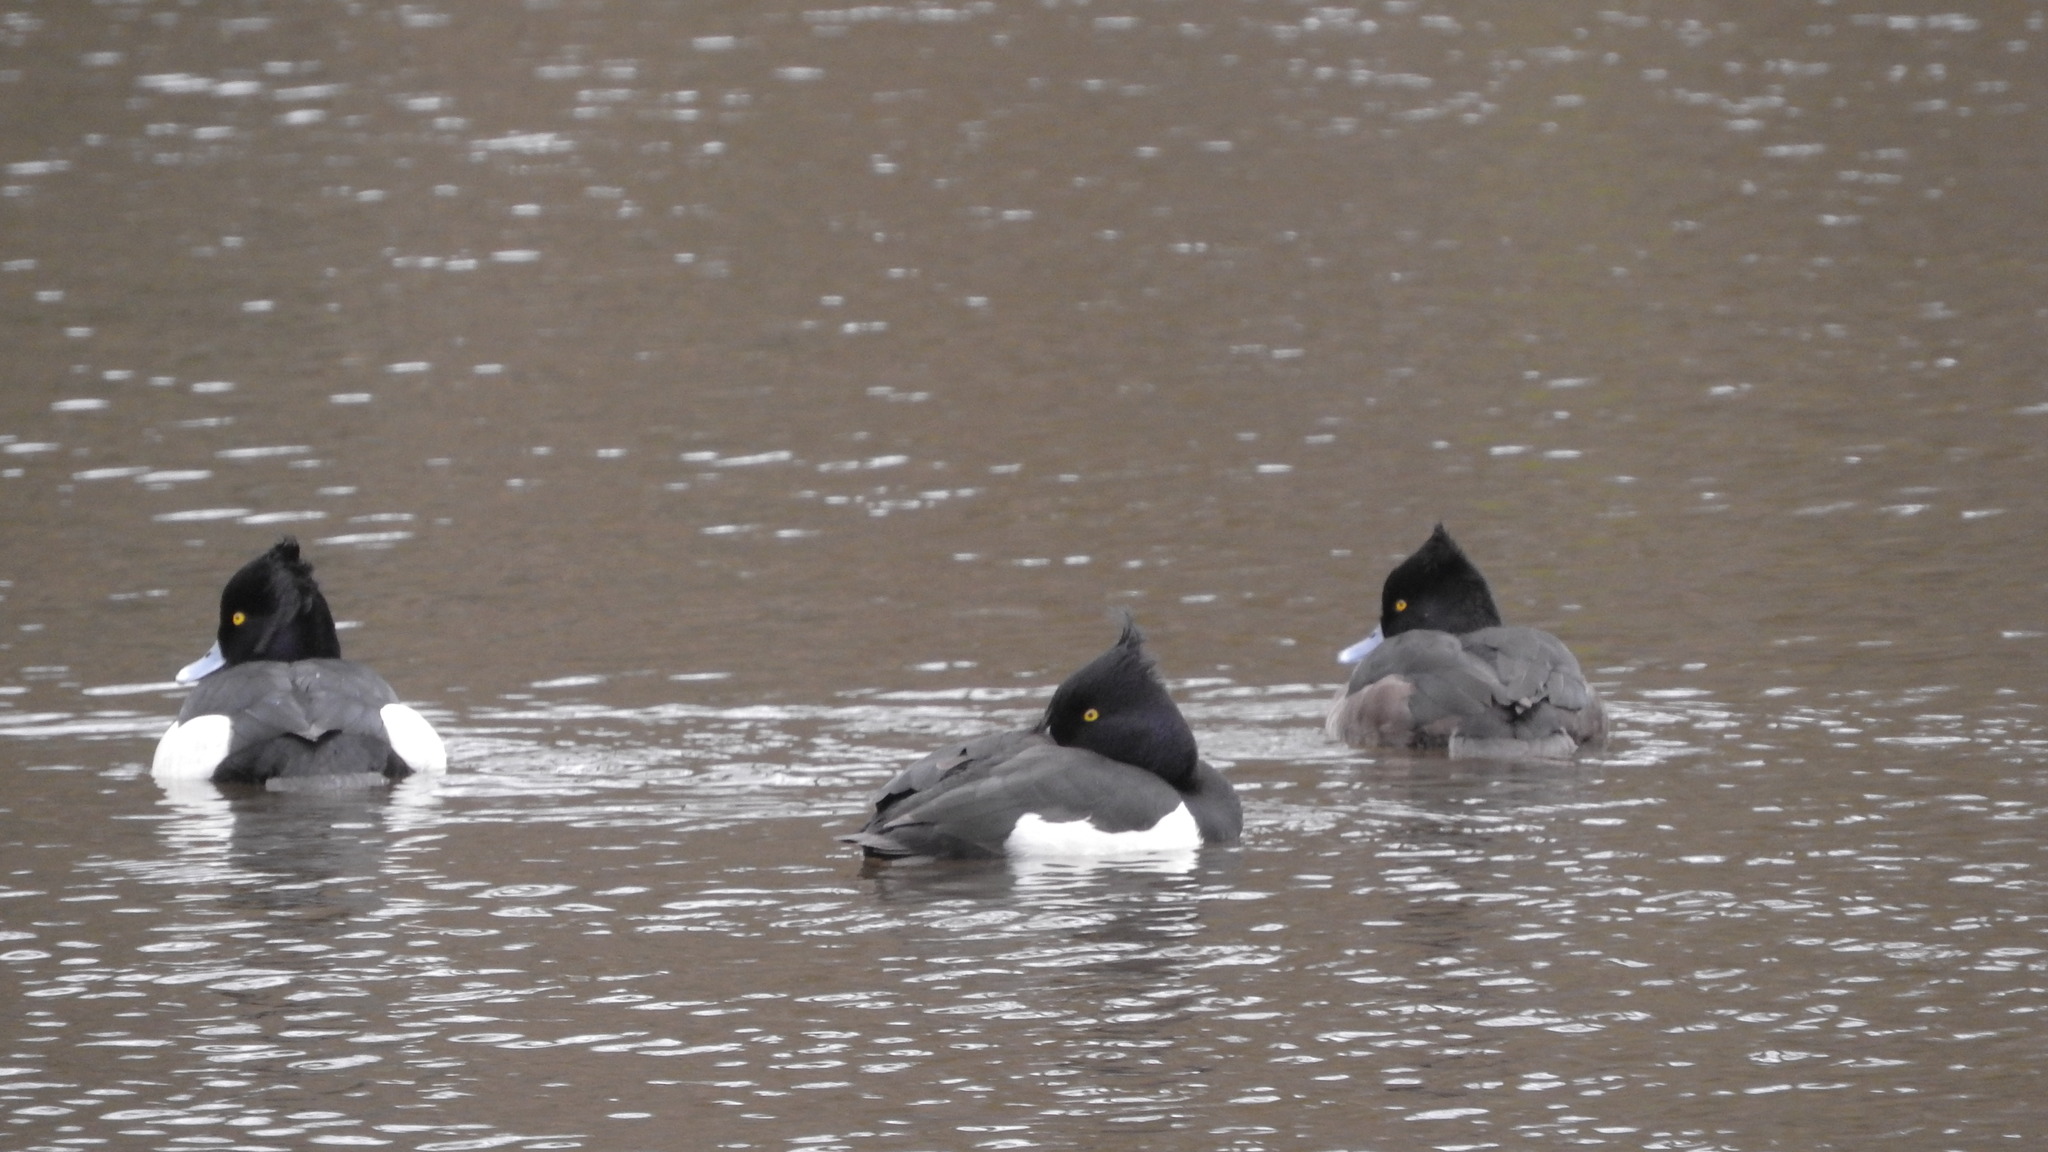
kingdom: Animalia
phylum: Chordata
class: Aves
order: Anseriformes
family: Anatidae
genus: Aythya
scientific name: Aythya fuligula
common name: Tufted duck
